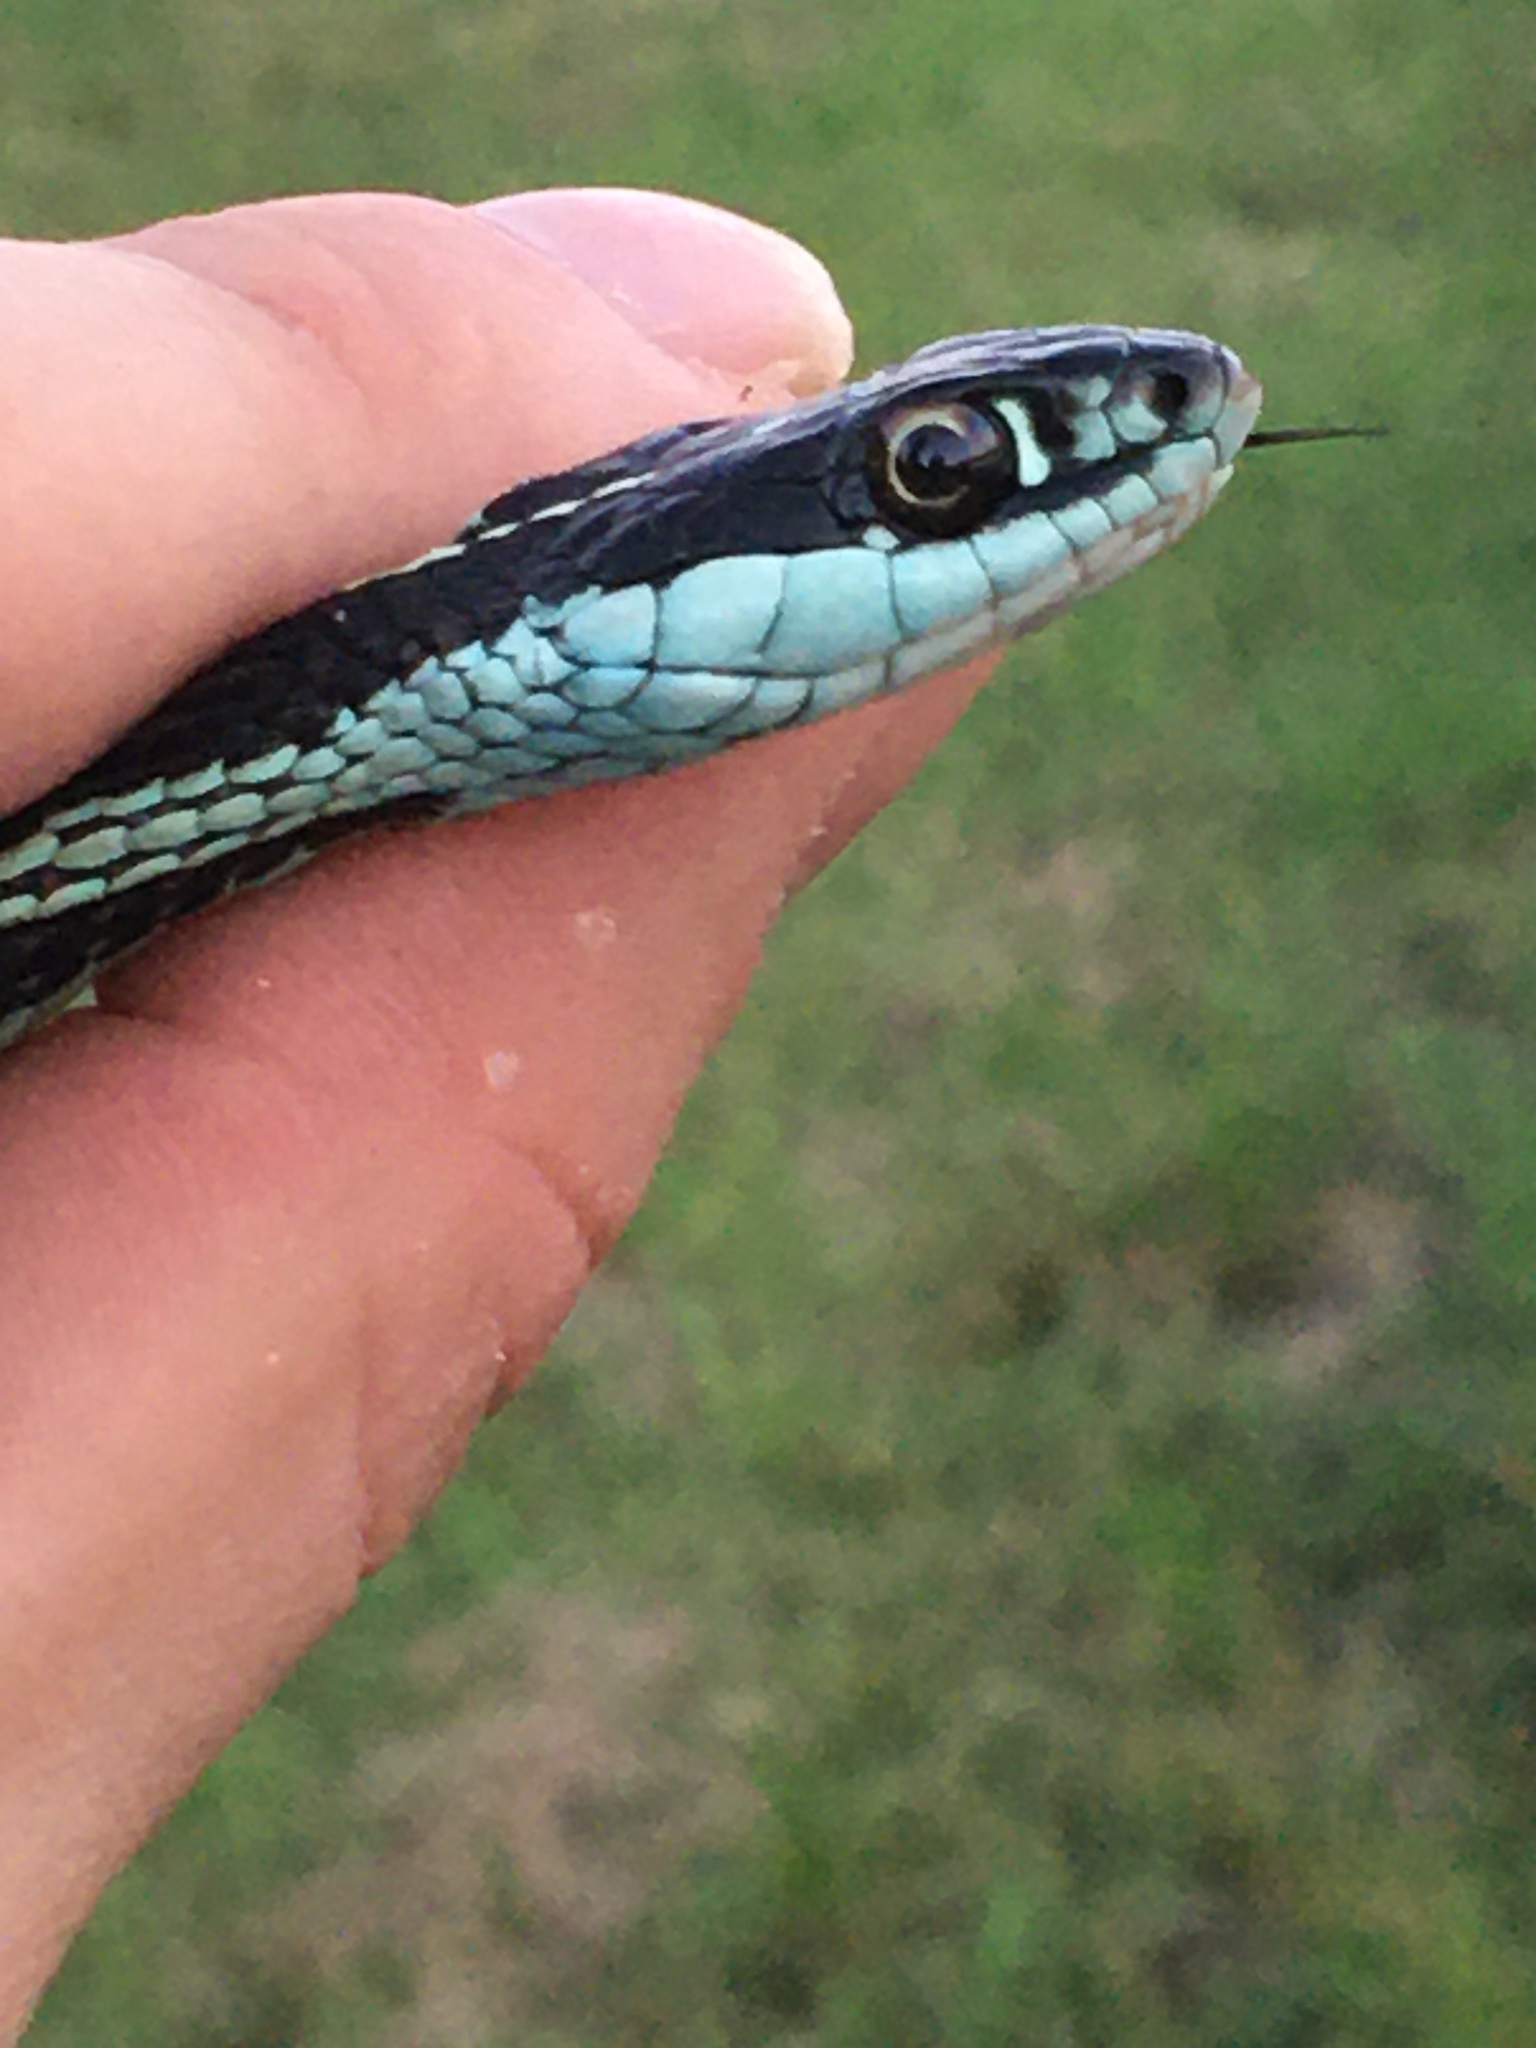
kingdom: Animalia
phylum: Chordata
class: Squamata
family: Colubridae
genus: Thamnophis
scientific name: Thamnophis proximus
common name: Western ribbon snake
